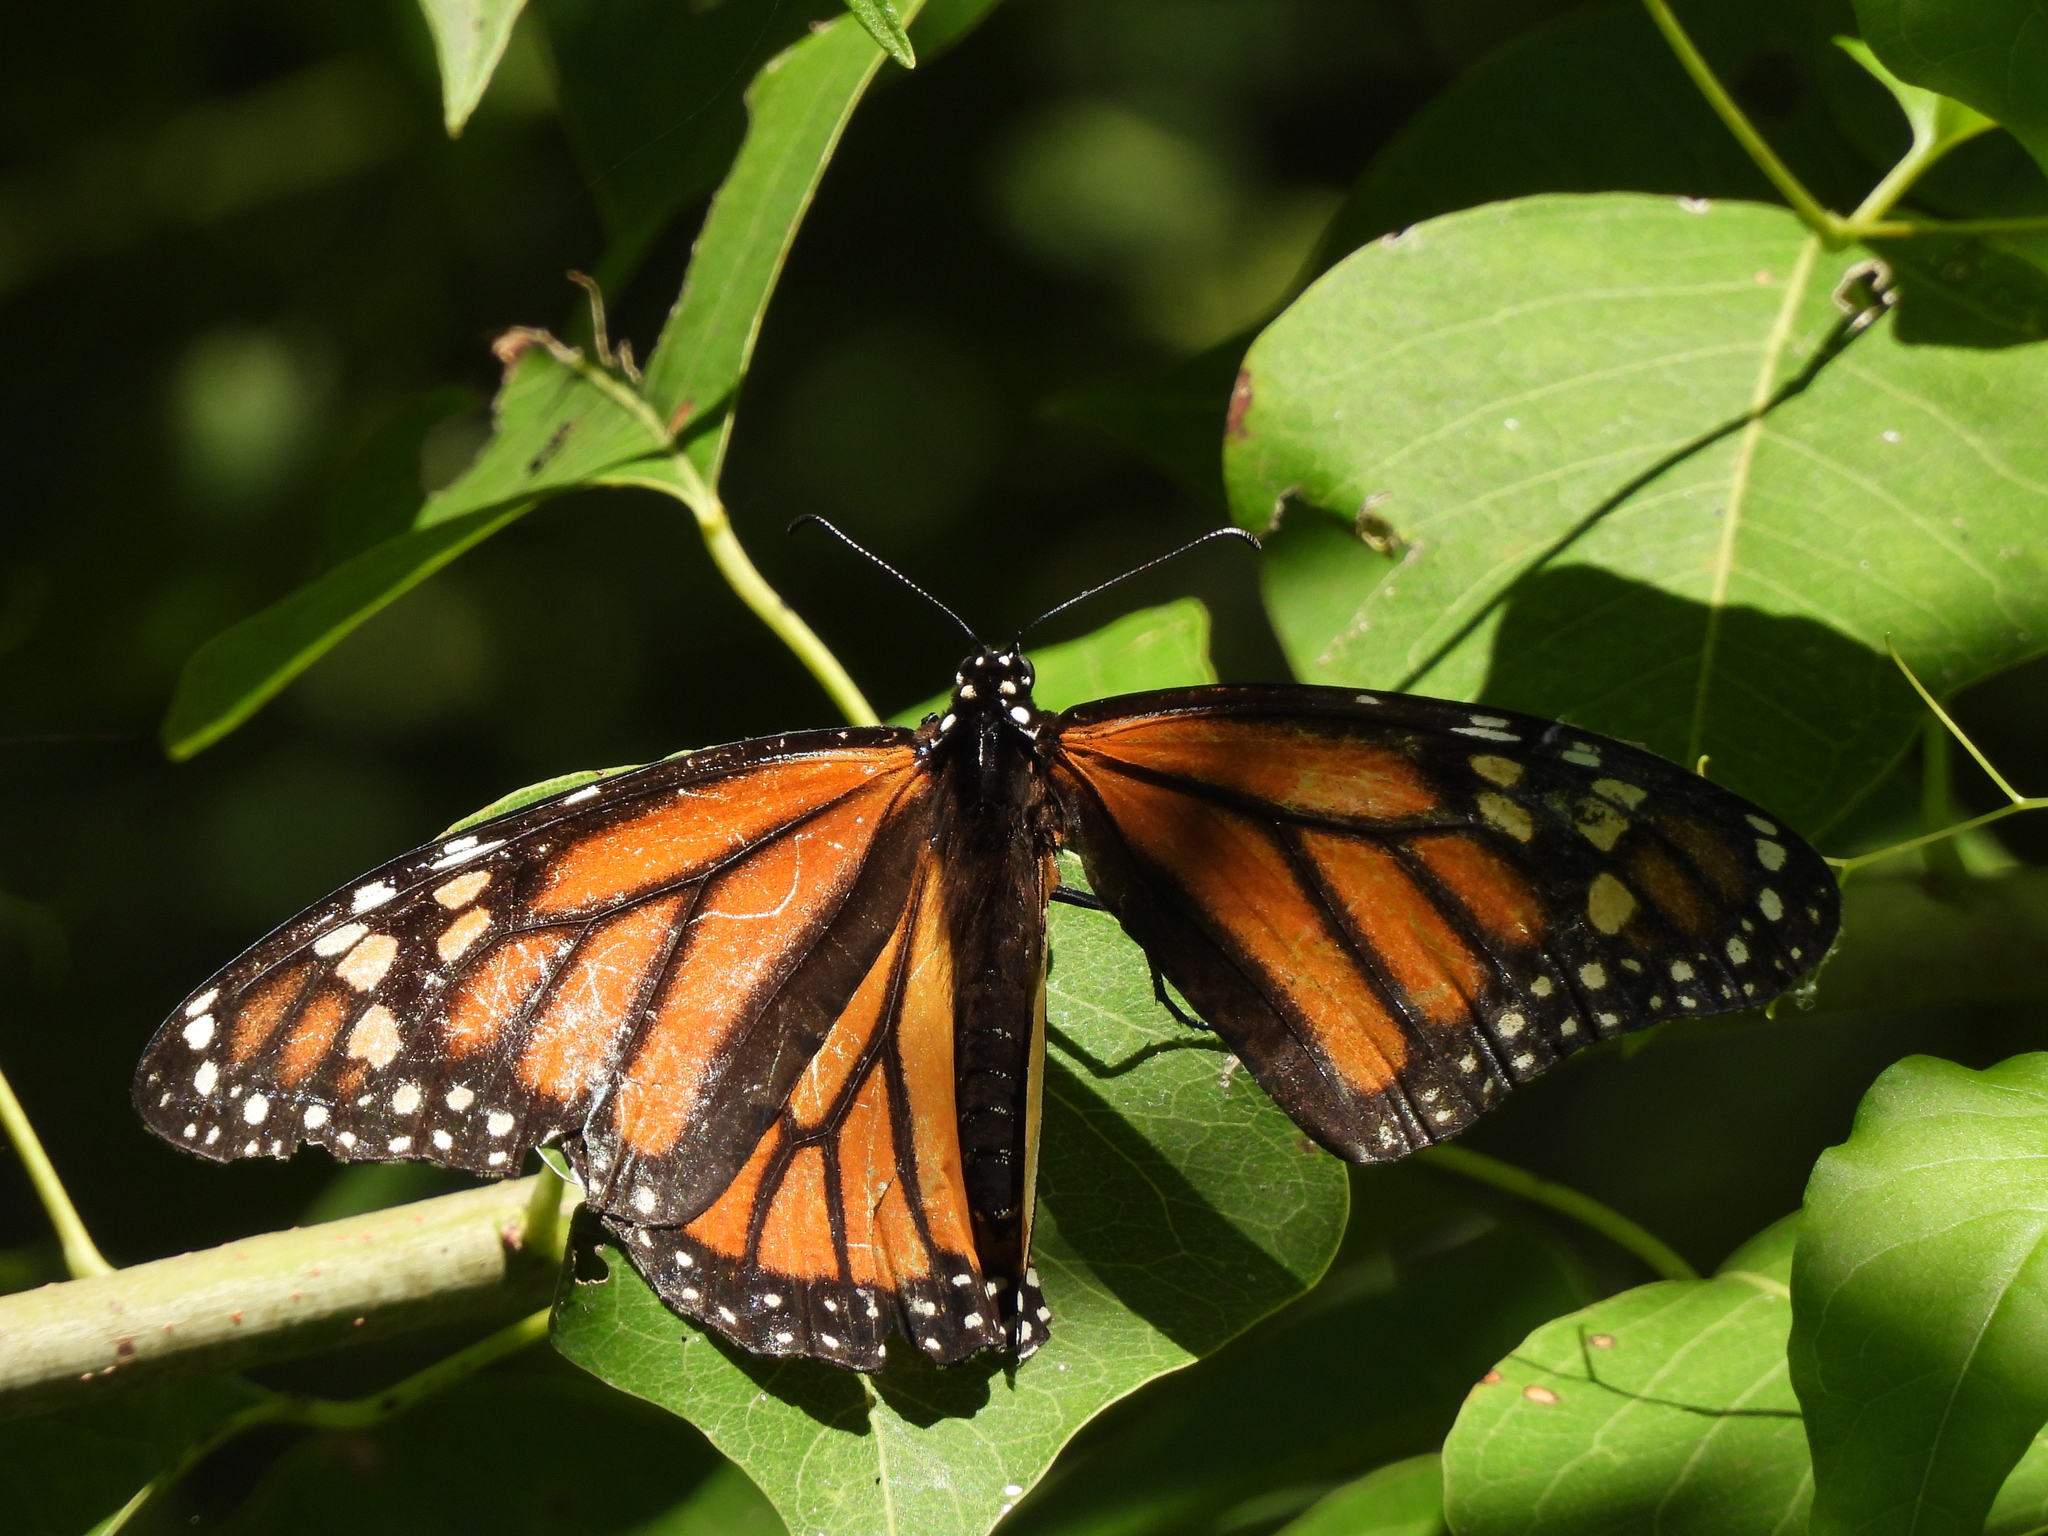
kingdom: Animalia
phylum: Arthropoda
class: Insecta
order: Lepidoptera
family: Nymphalidae
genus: Danaus
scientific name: Danaus plexippus
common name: Monarch
